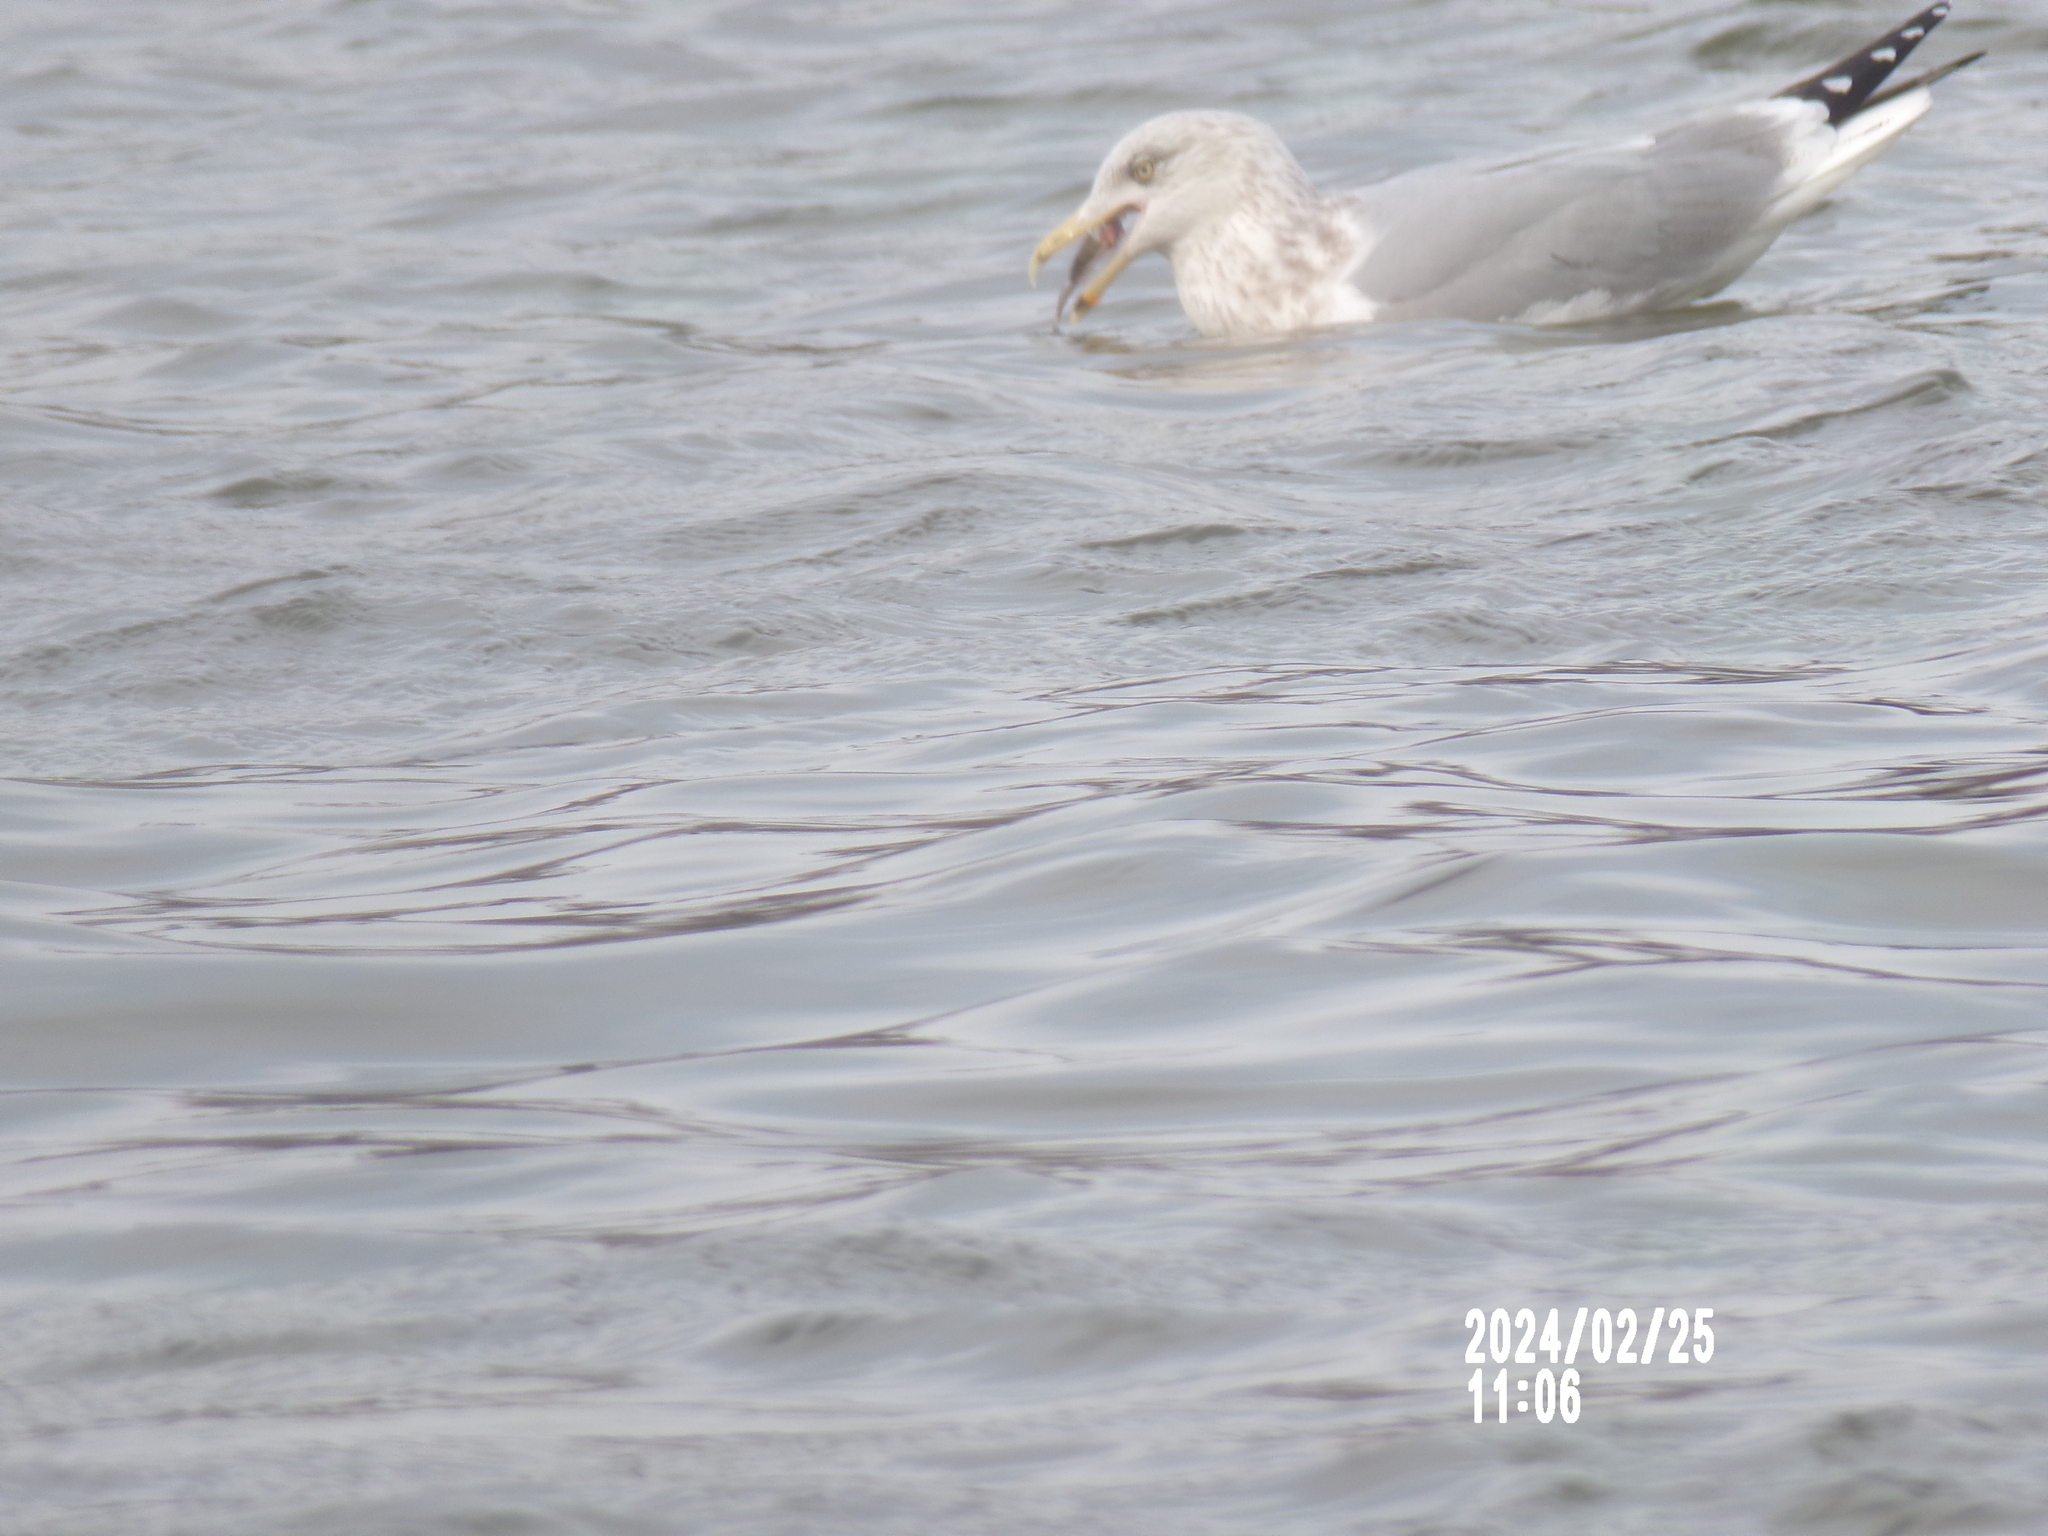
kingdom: Animalia
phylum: Chordata
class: Aves
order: Charadriiformes
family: Laridae
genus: Larus
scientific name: Larus smithsonianus
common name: American herring gull
